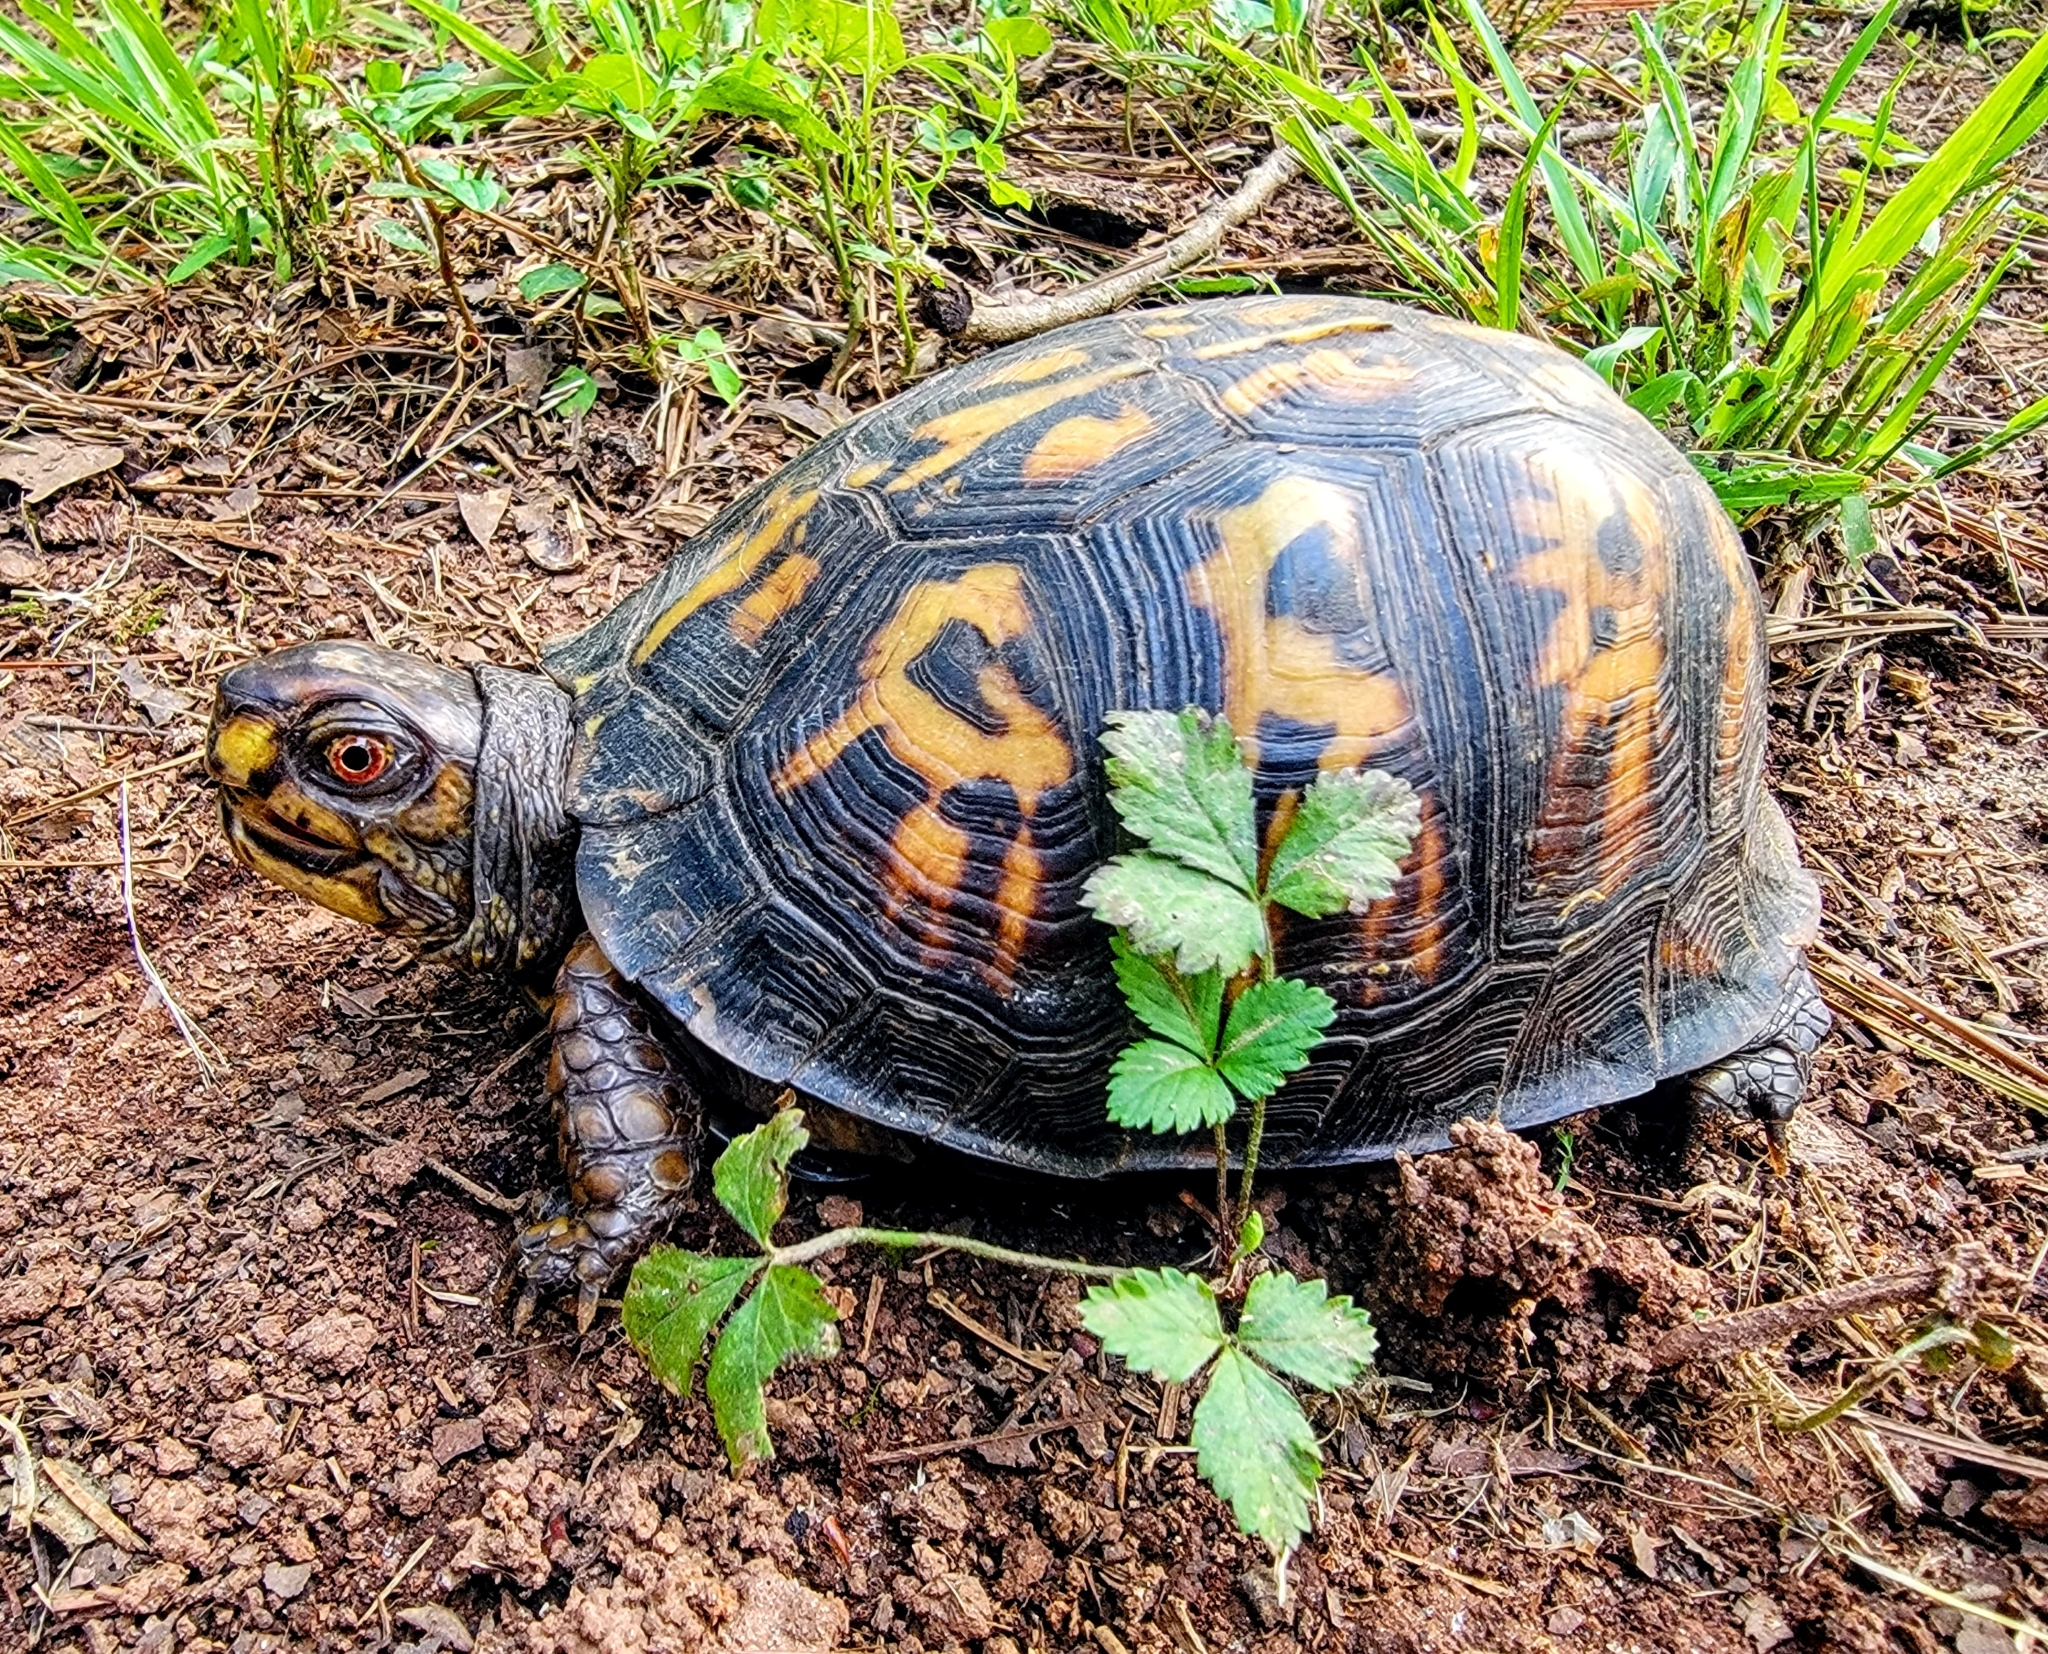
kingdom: Animalia
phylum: Chordata
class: Testudines
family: Emydidae
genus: Terrapene
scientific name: Terrapene carolina
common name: Common box turtle
